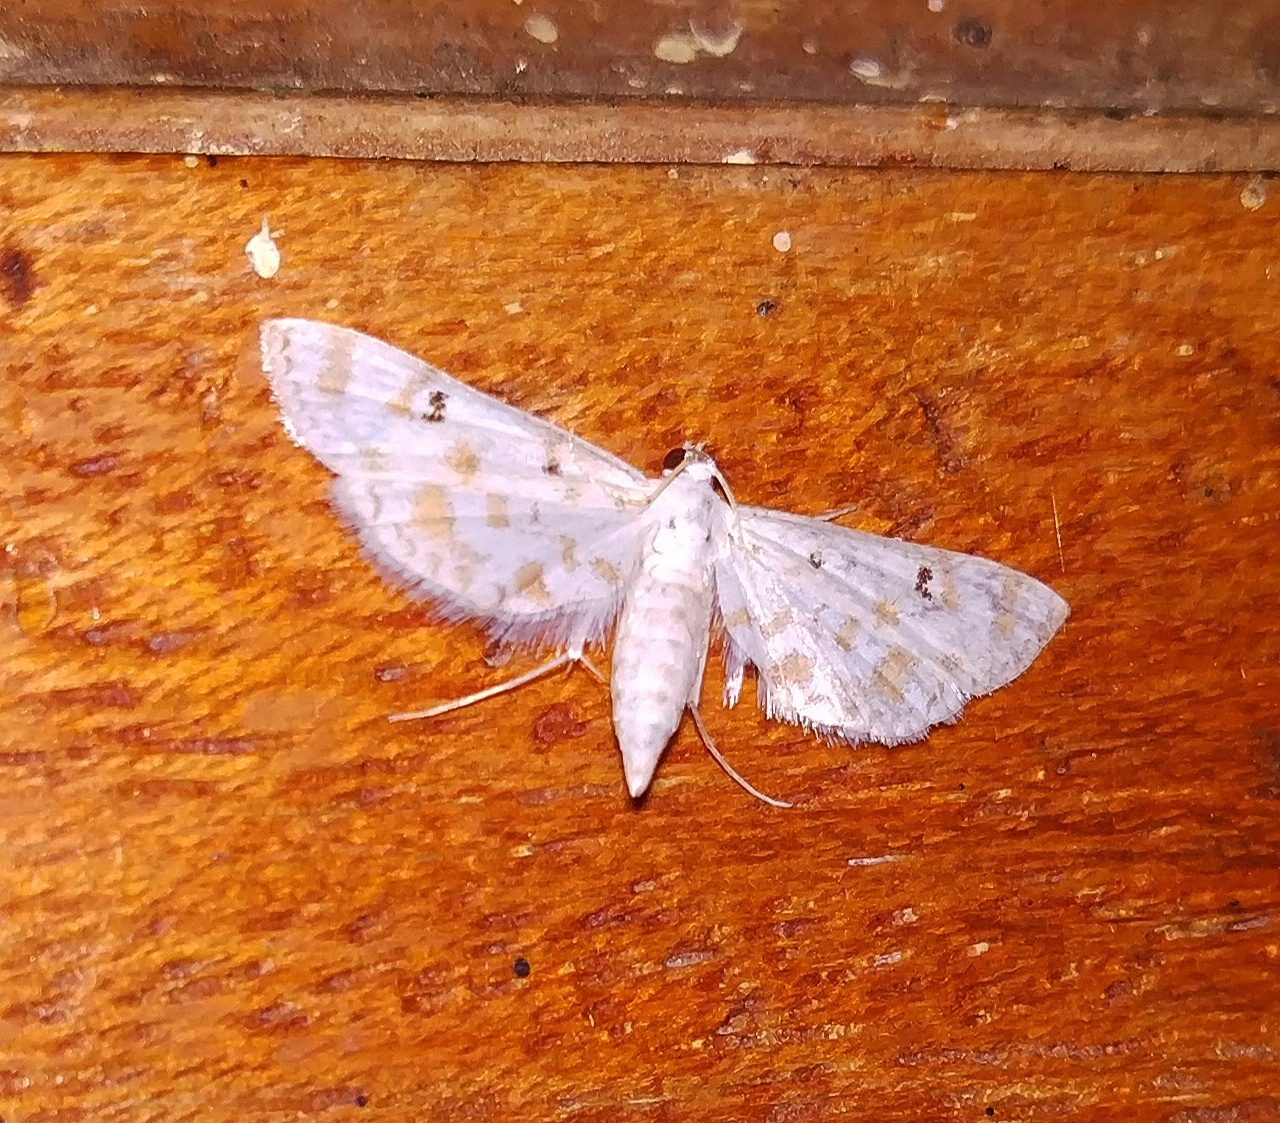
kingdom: Animalia
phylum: Arthropoda
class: Insecta
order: Lepidoptera
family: Crambidae
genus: Parapoynx
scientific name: Parapoynx stagnalis
